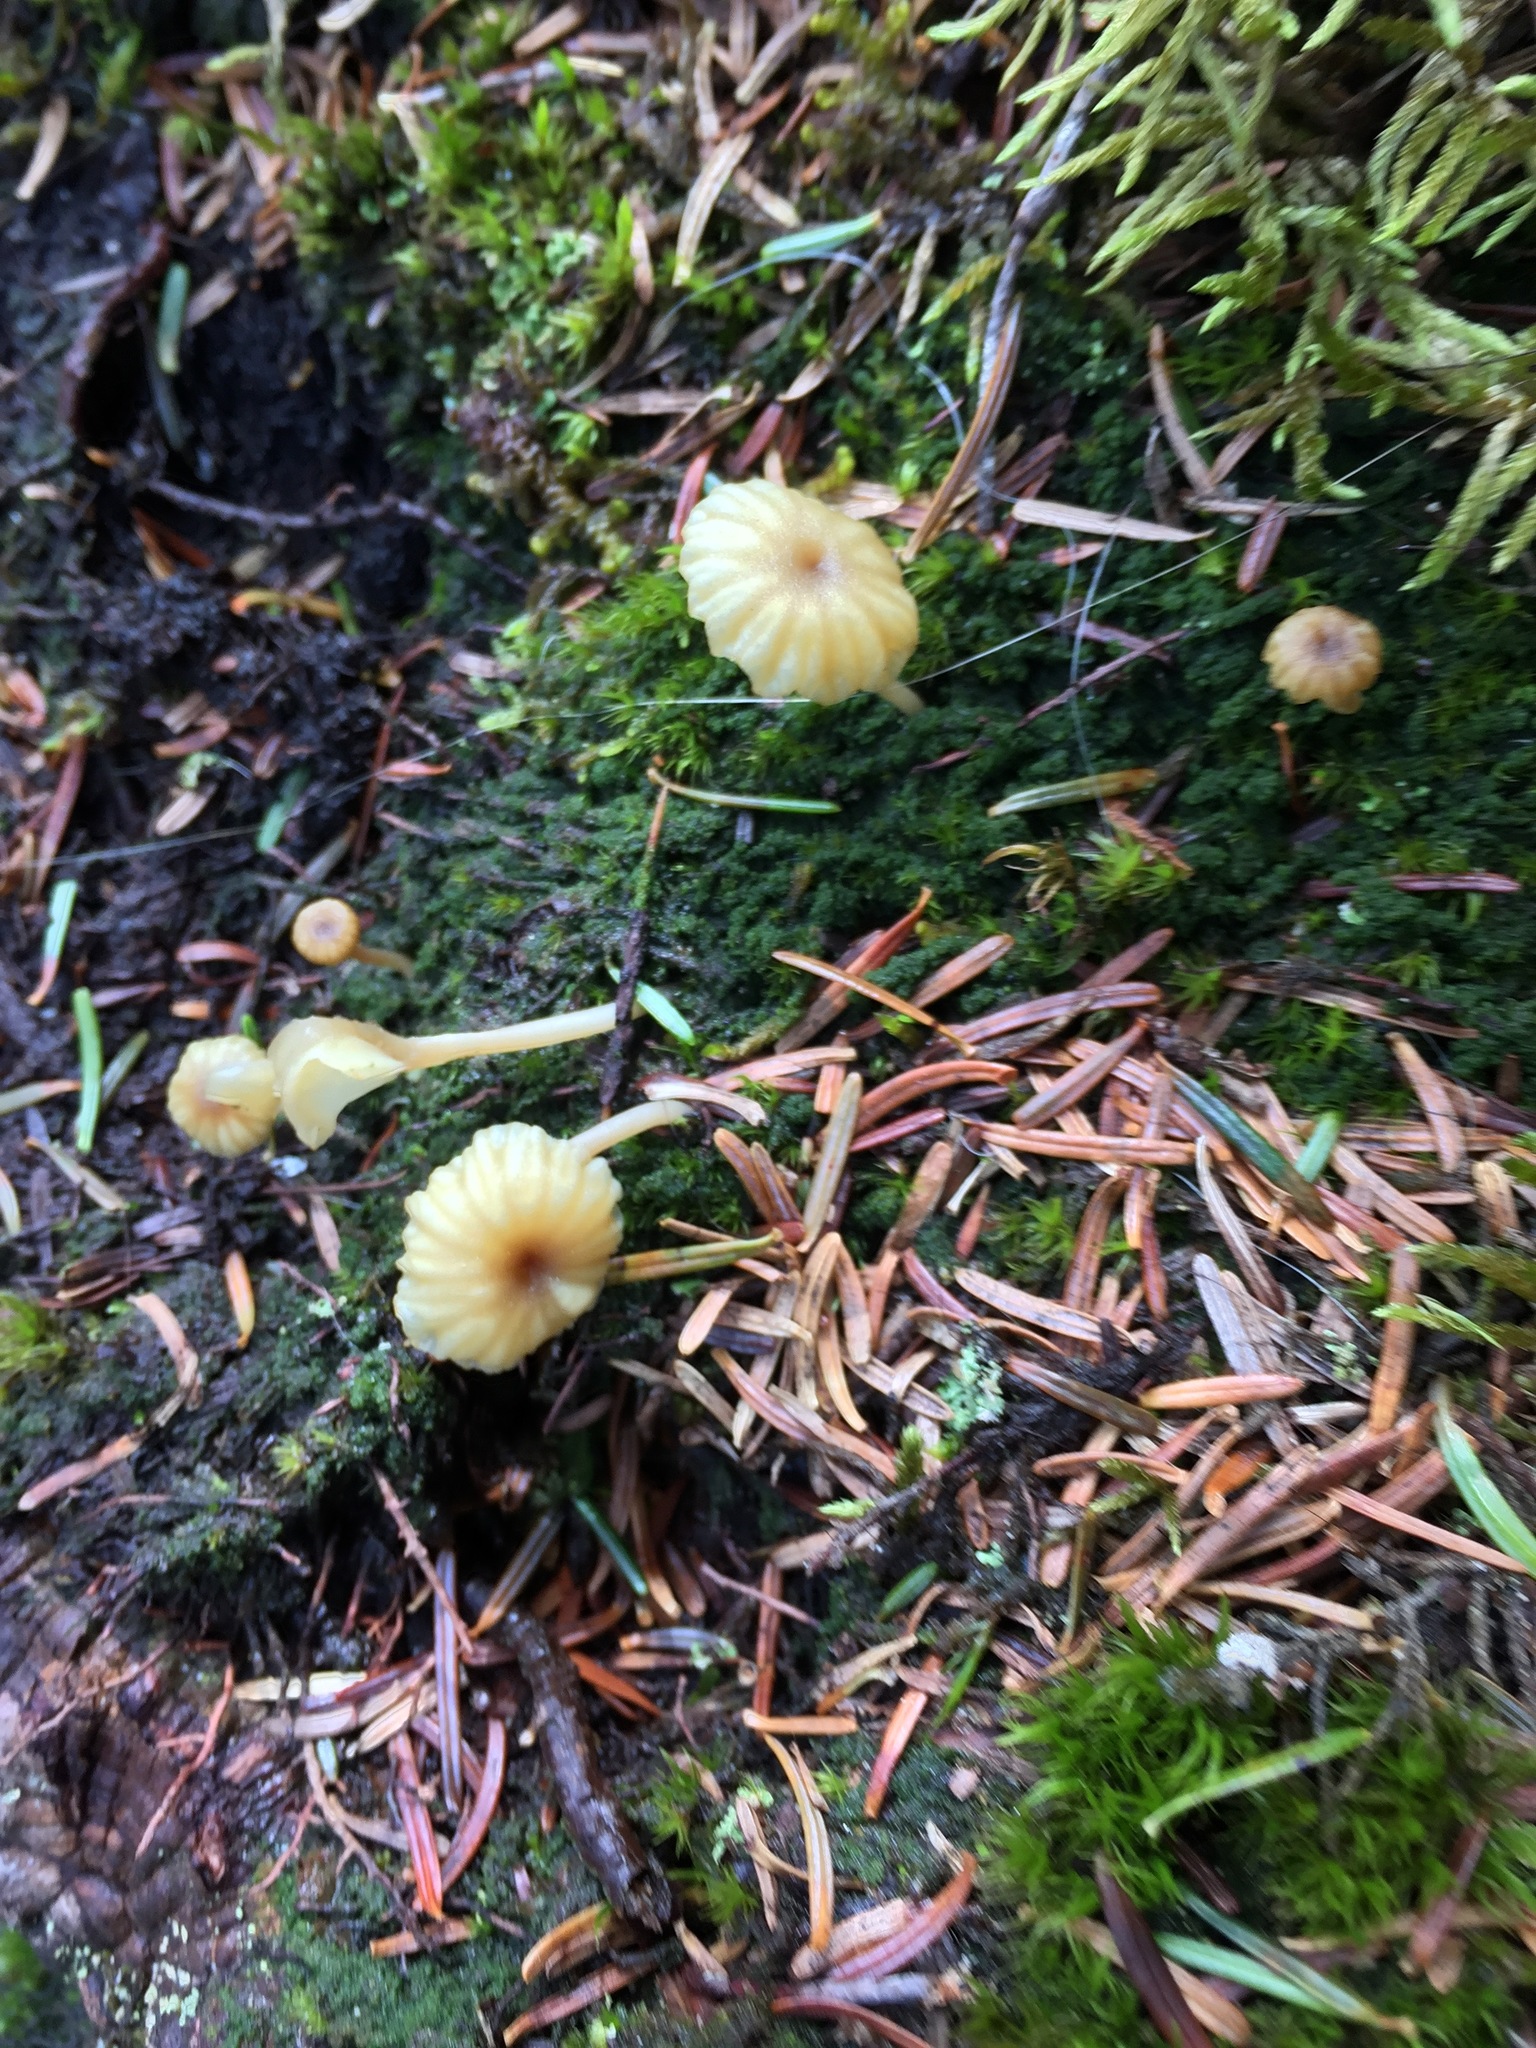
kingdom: Fungi
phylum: Basidiomycota
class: Agaricomycetes
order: Agaricales
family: Hygrophoraceae
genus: Lichenomphalia
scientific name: Lichenomphalia
